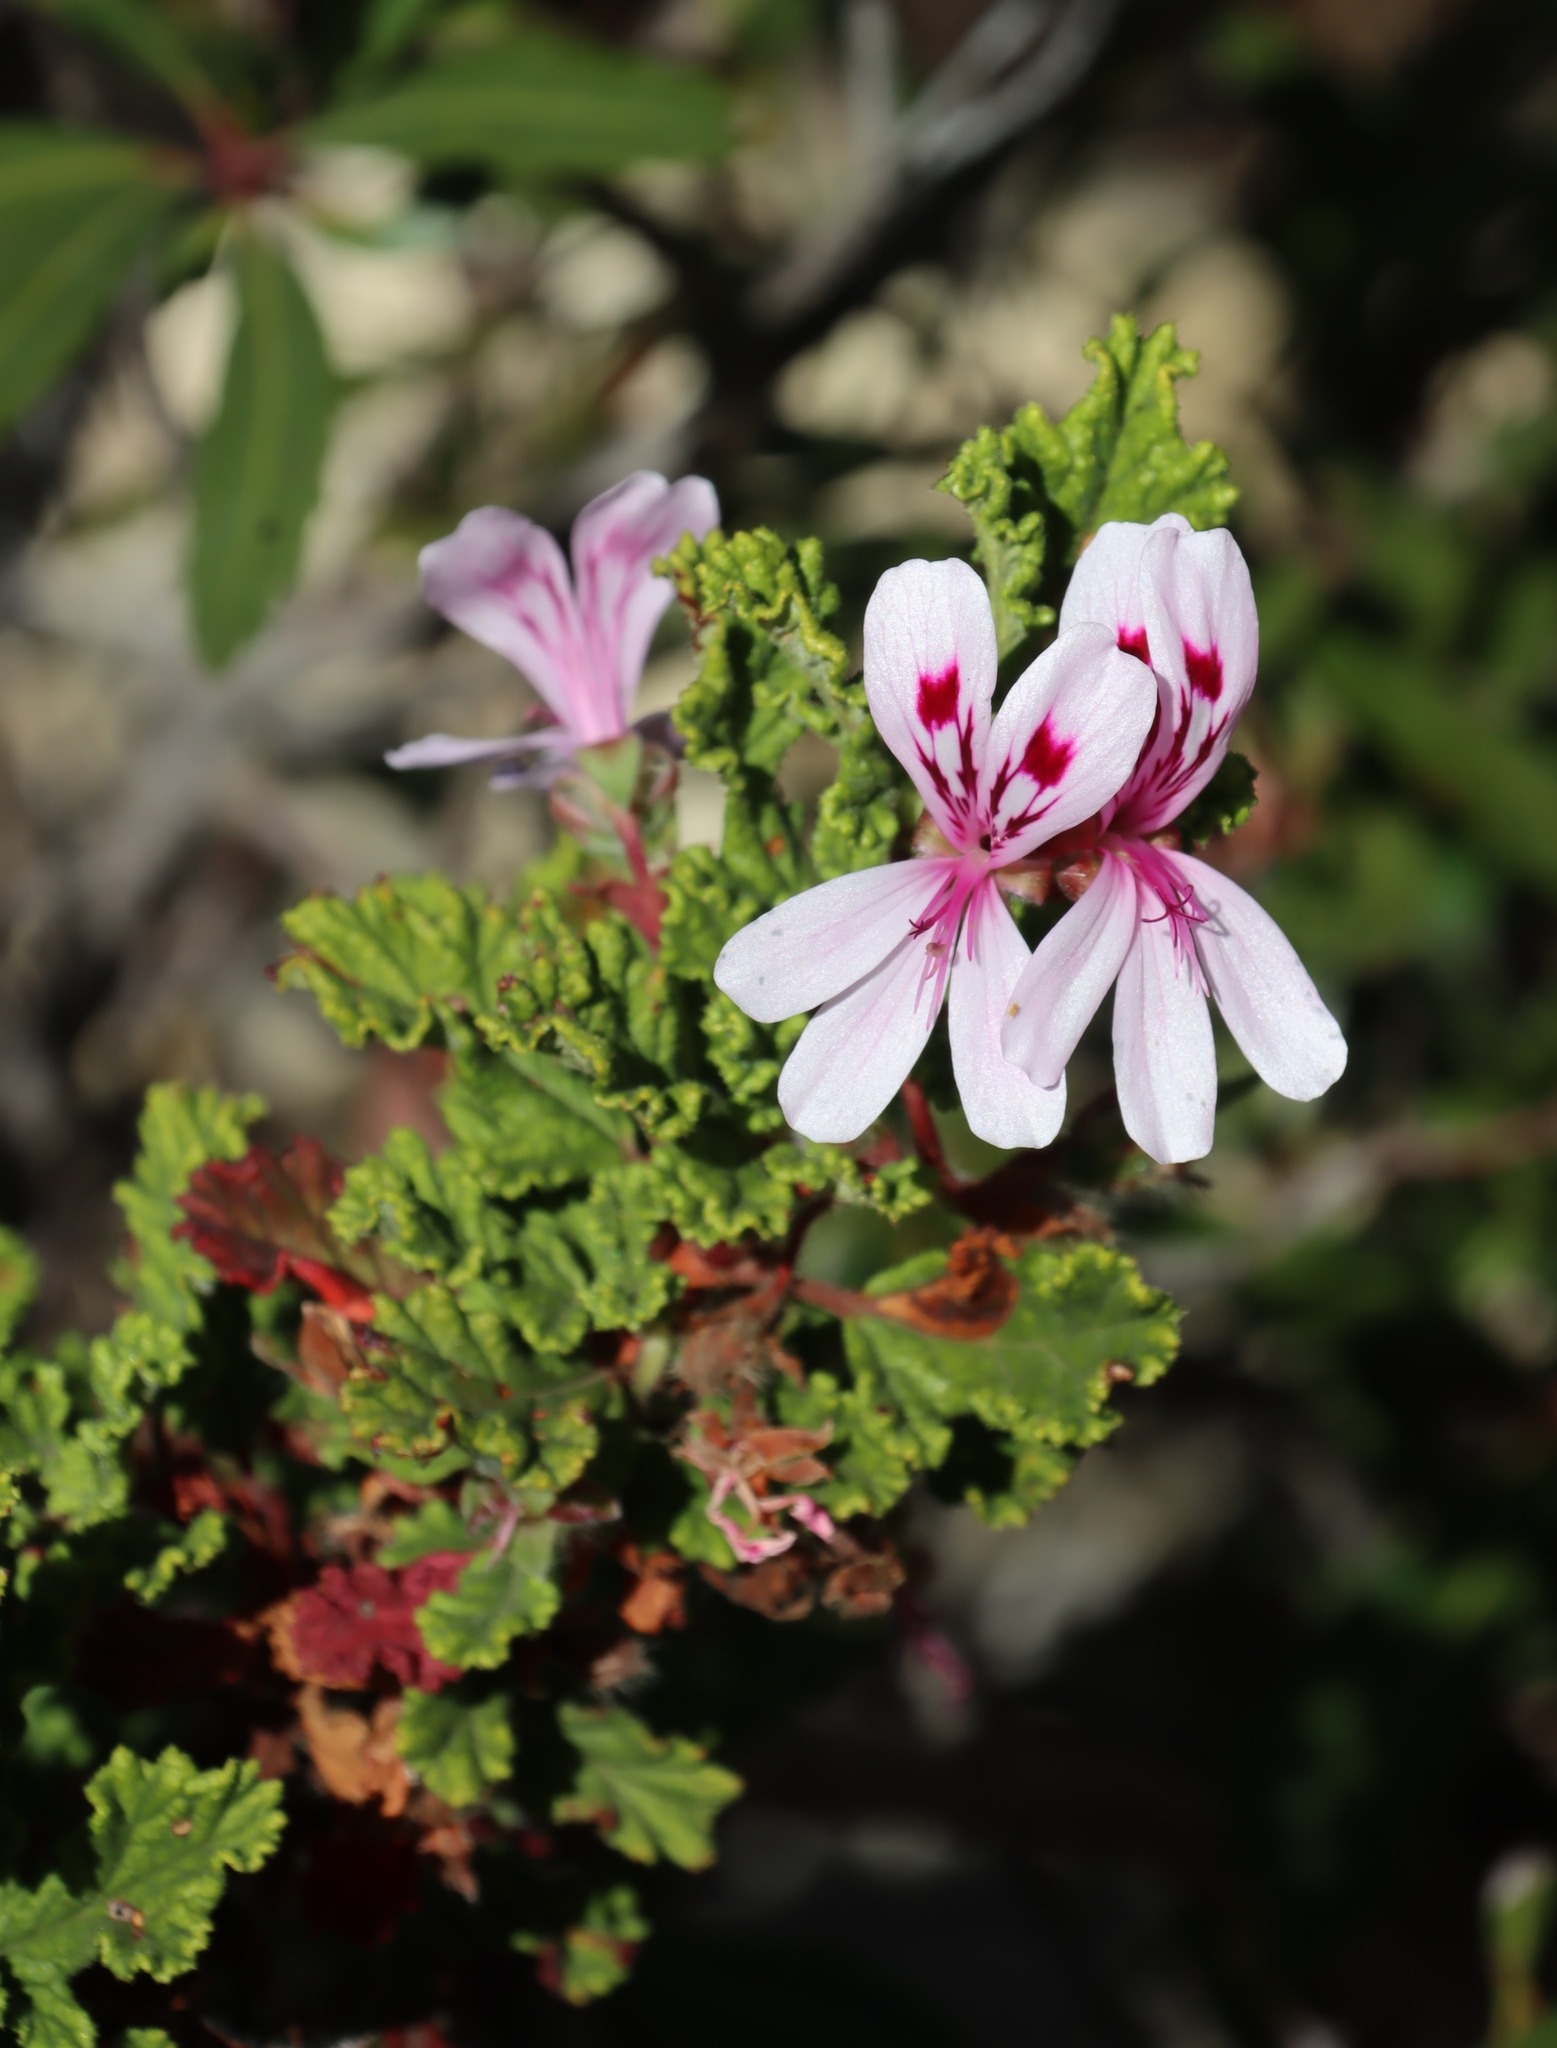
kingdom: Plantae
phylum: Tracheophyta
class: Magnoliopsida
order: Geraniales
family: Geraniaceae
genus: Pelargonium
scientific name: Pelargonium panduriforme
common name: Oakleaf garden geranium
